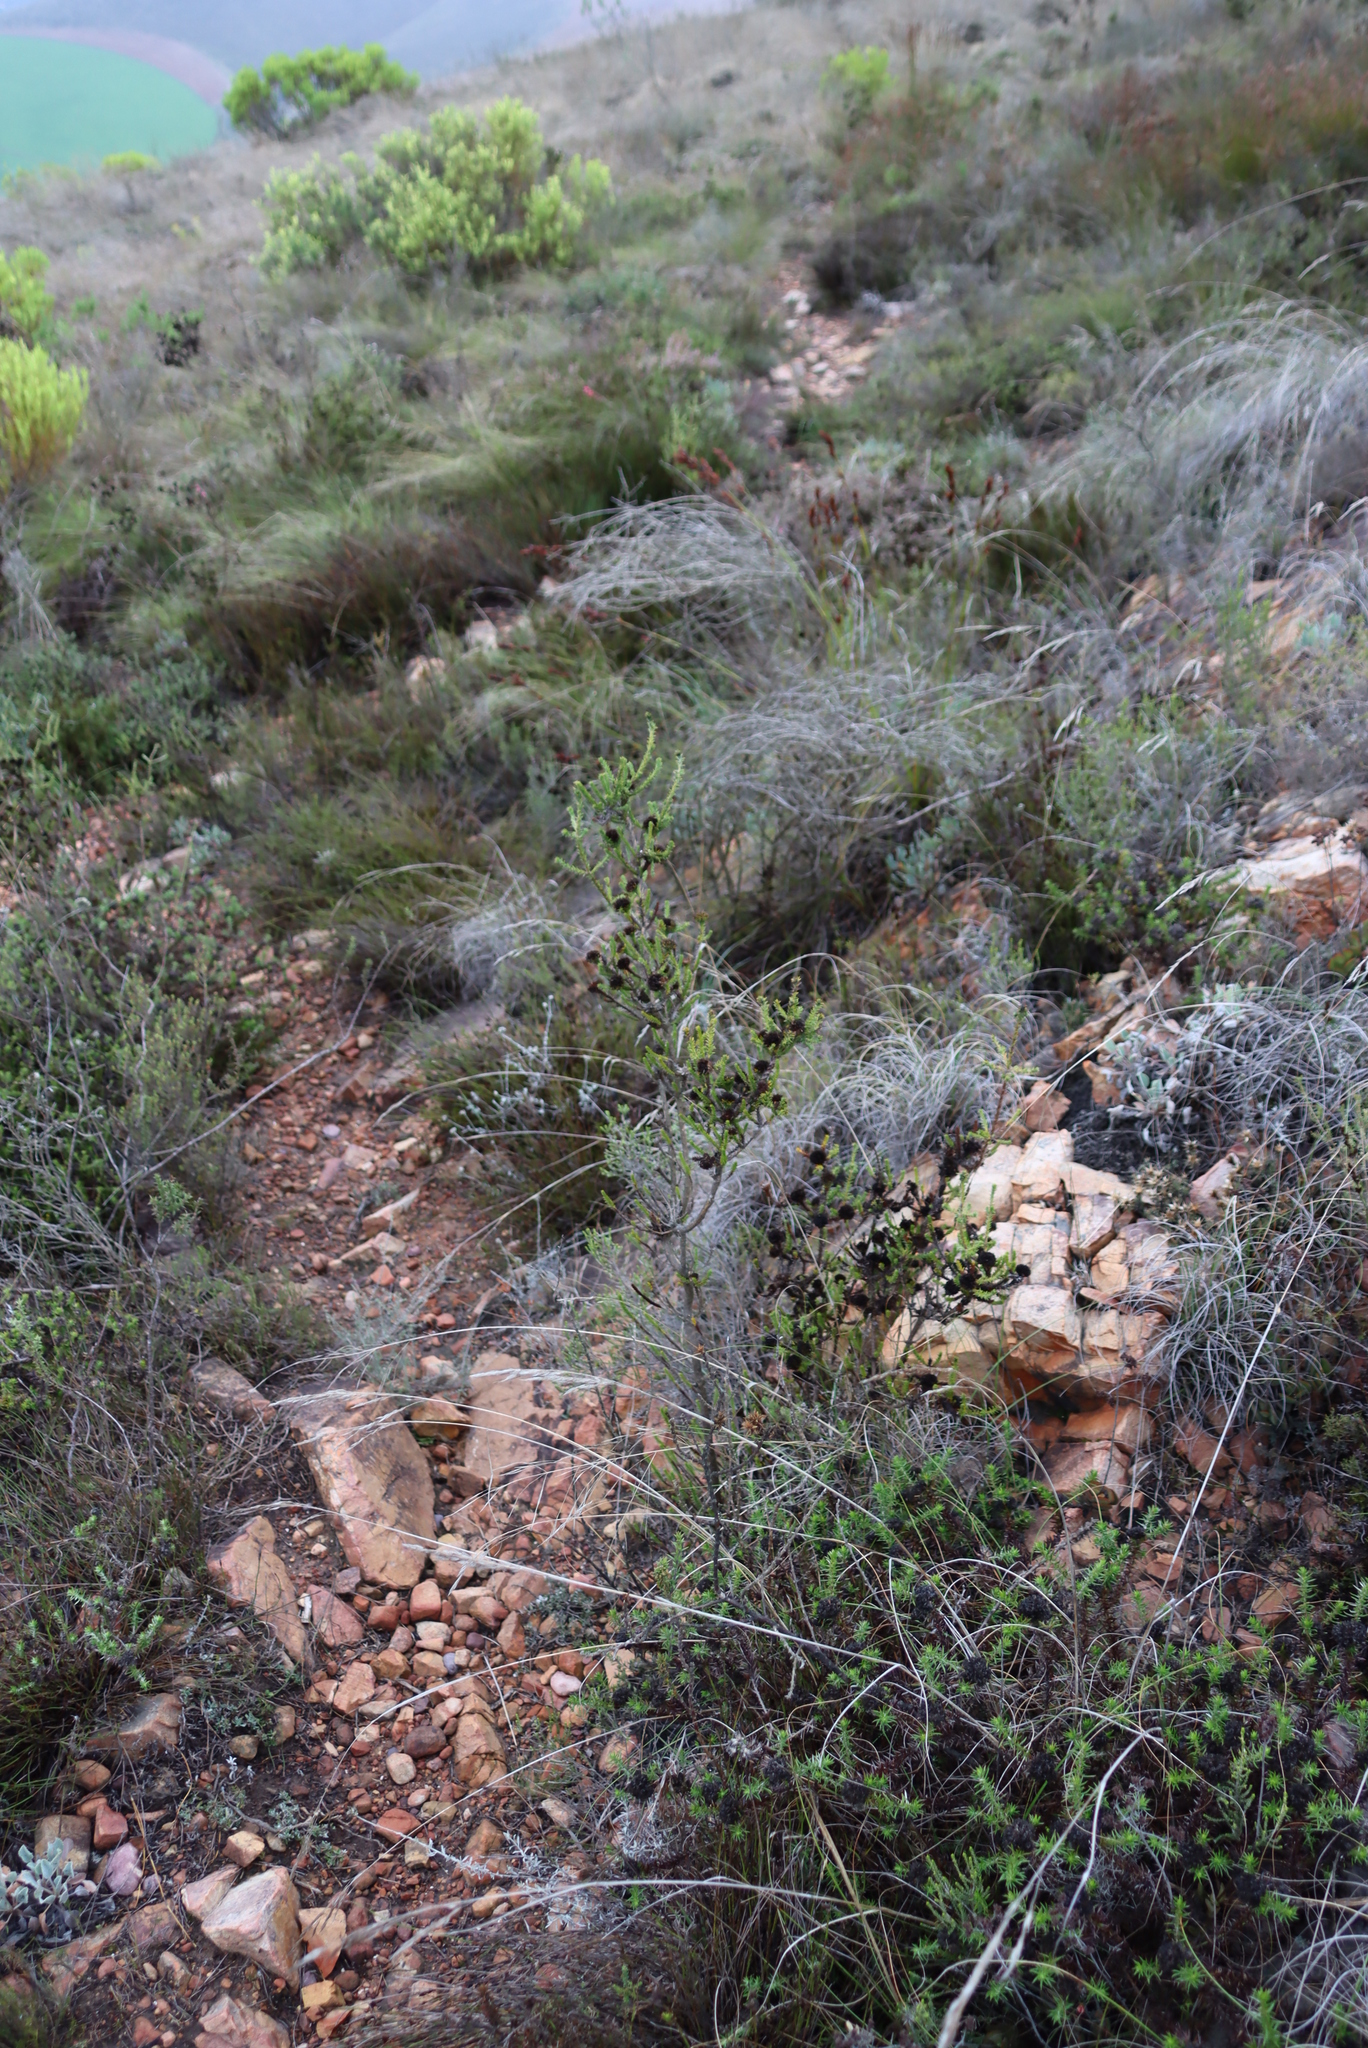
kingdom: Plantae
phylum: Tracheophyta
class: Magnoliopsida
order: Asterales
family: Asteraceae
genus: Stoebe
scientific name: Stoebe aethiopica
